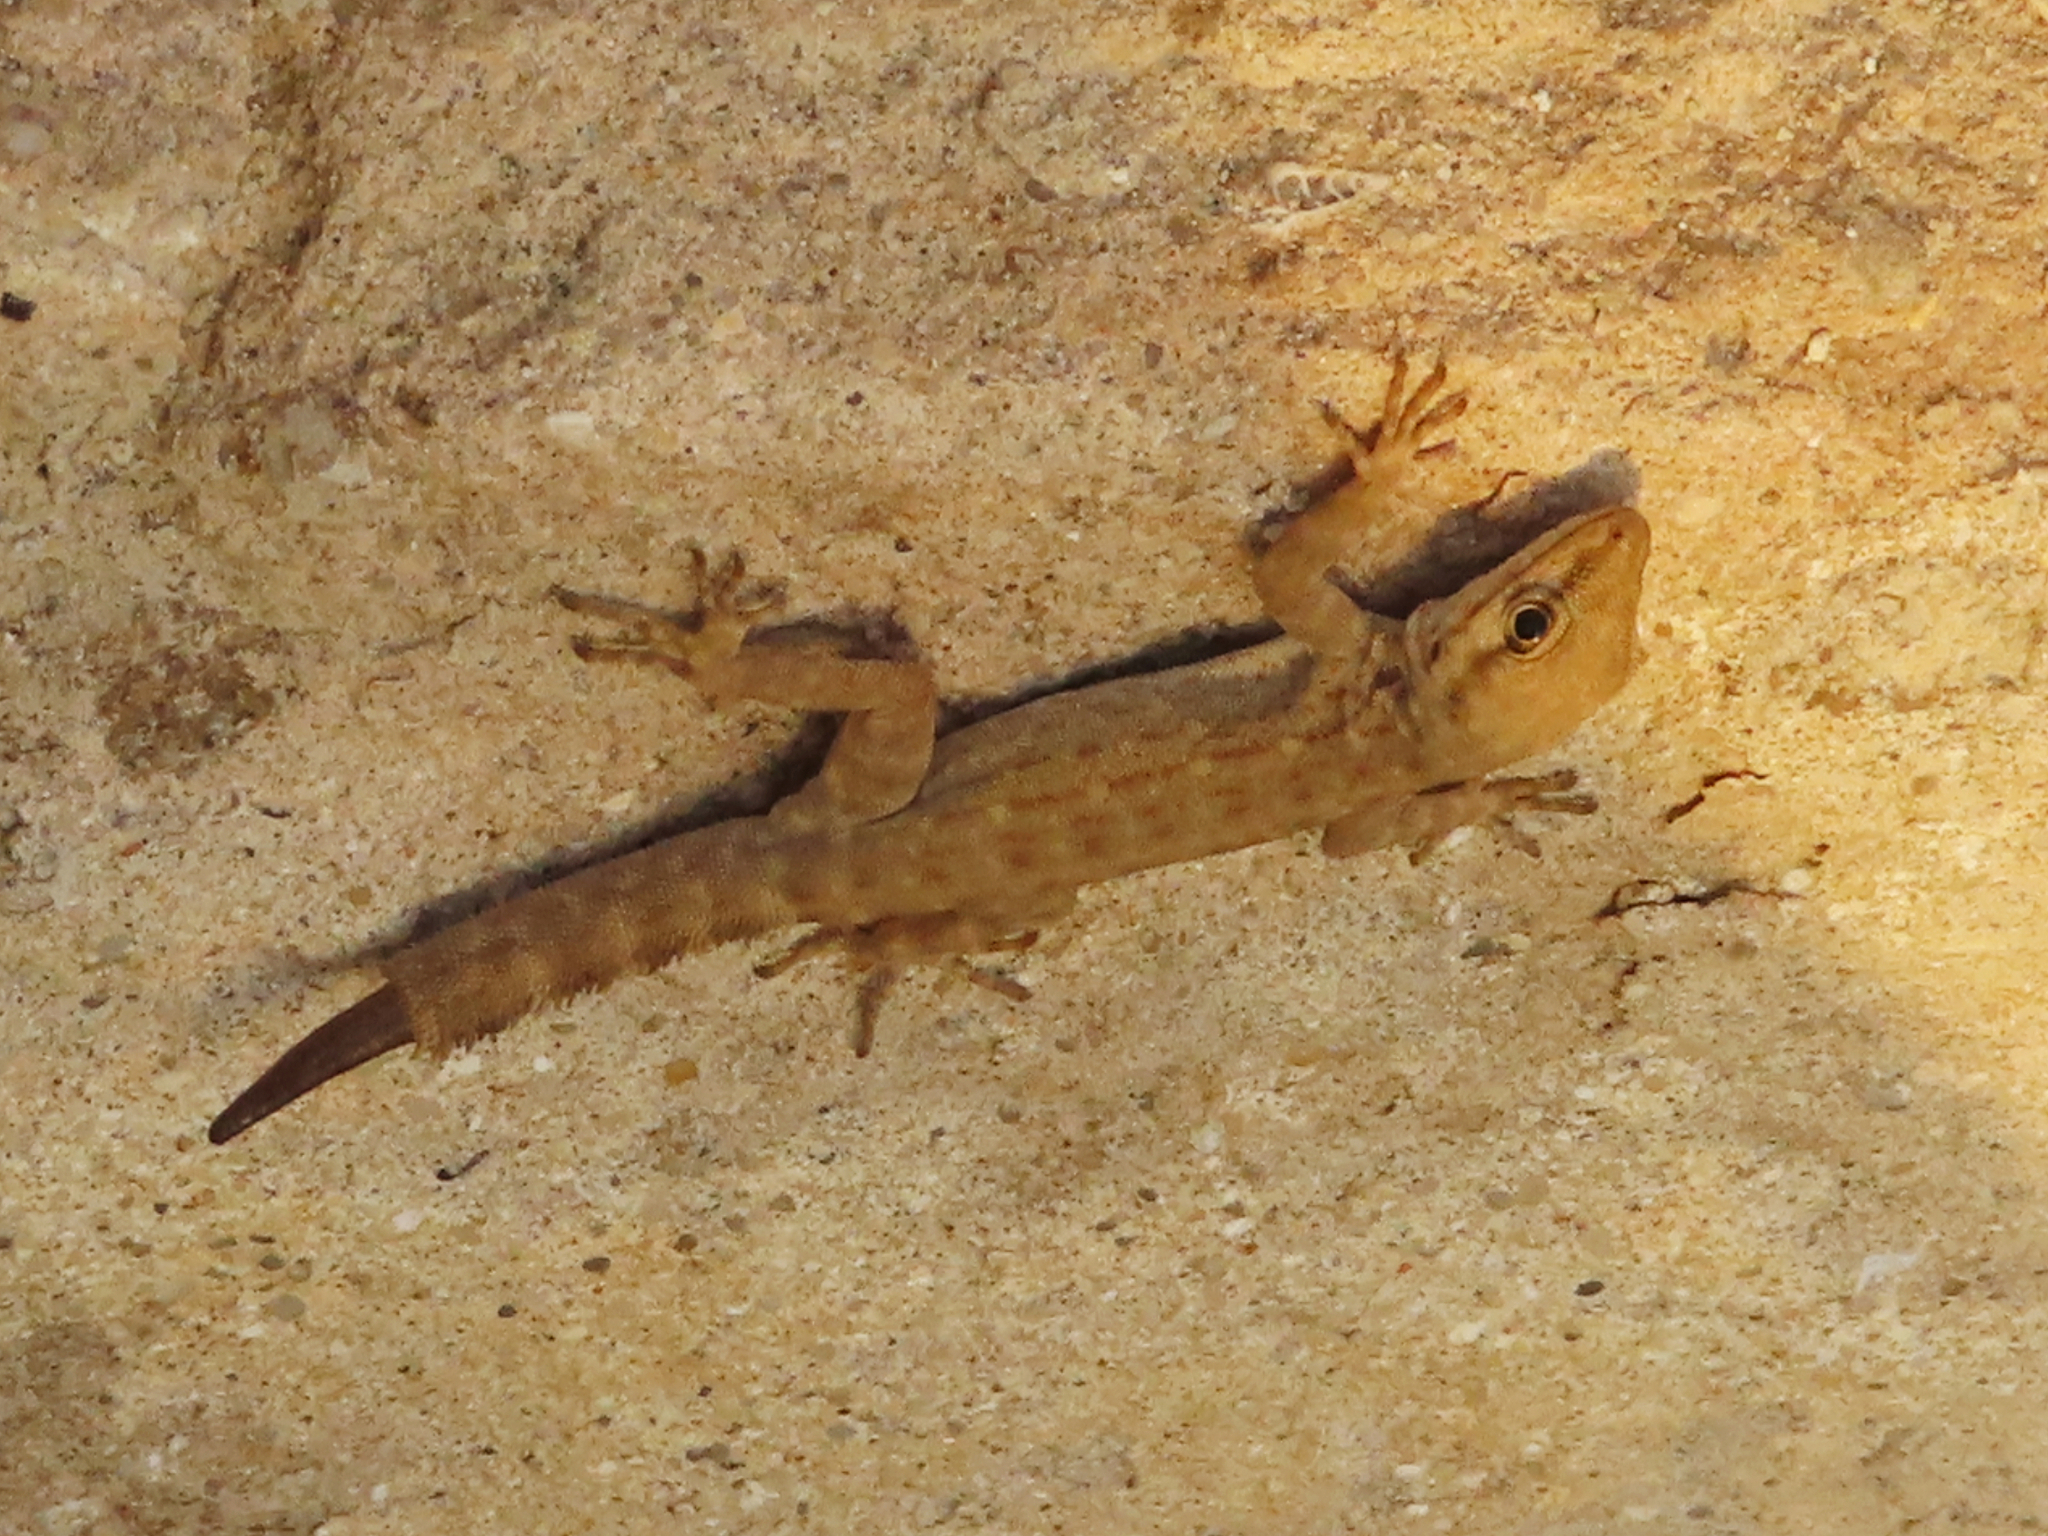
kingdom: Animalia
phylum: Chordata
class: Squamata
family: Sphaerodactylidae
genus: Pristurus
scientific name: Pristurus rupestris
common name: Blanford’s semaphore gecko
